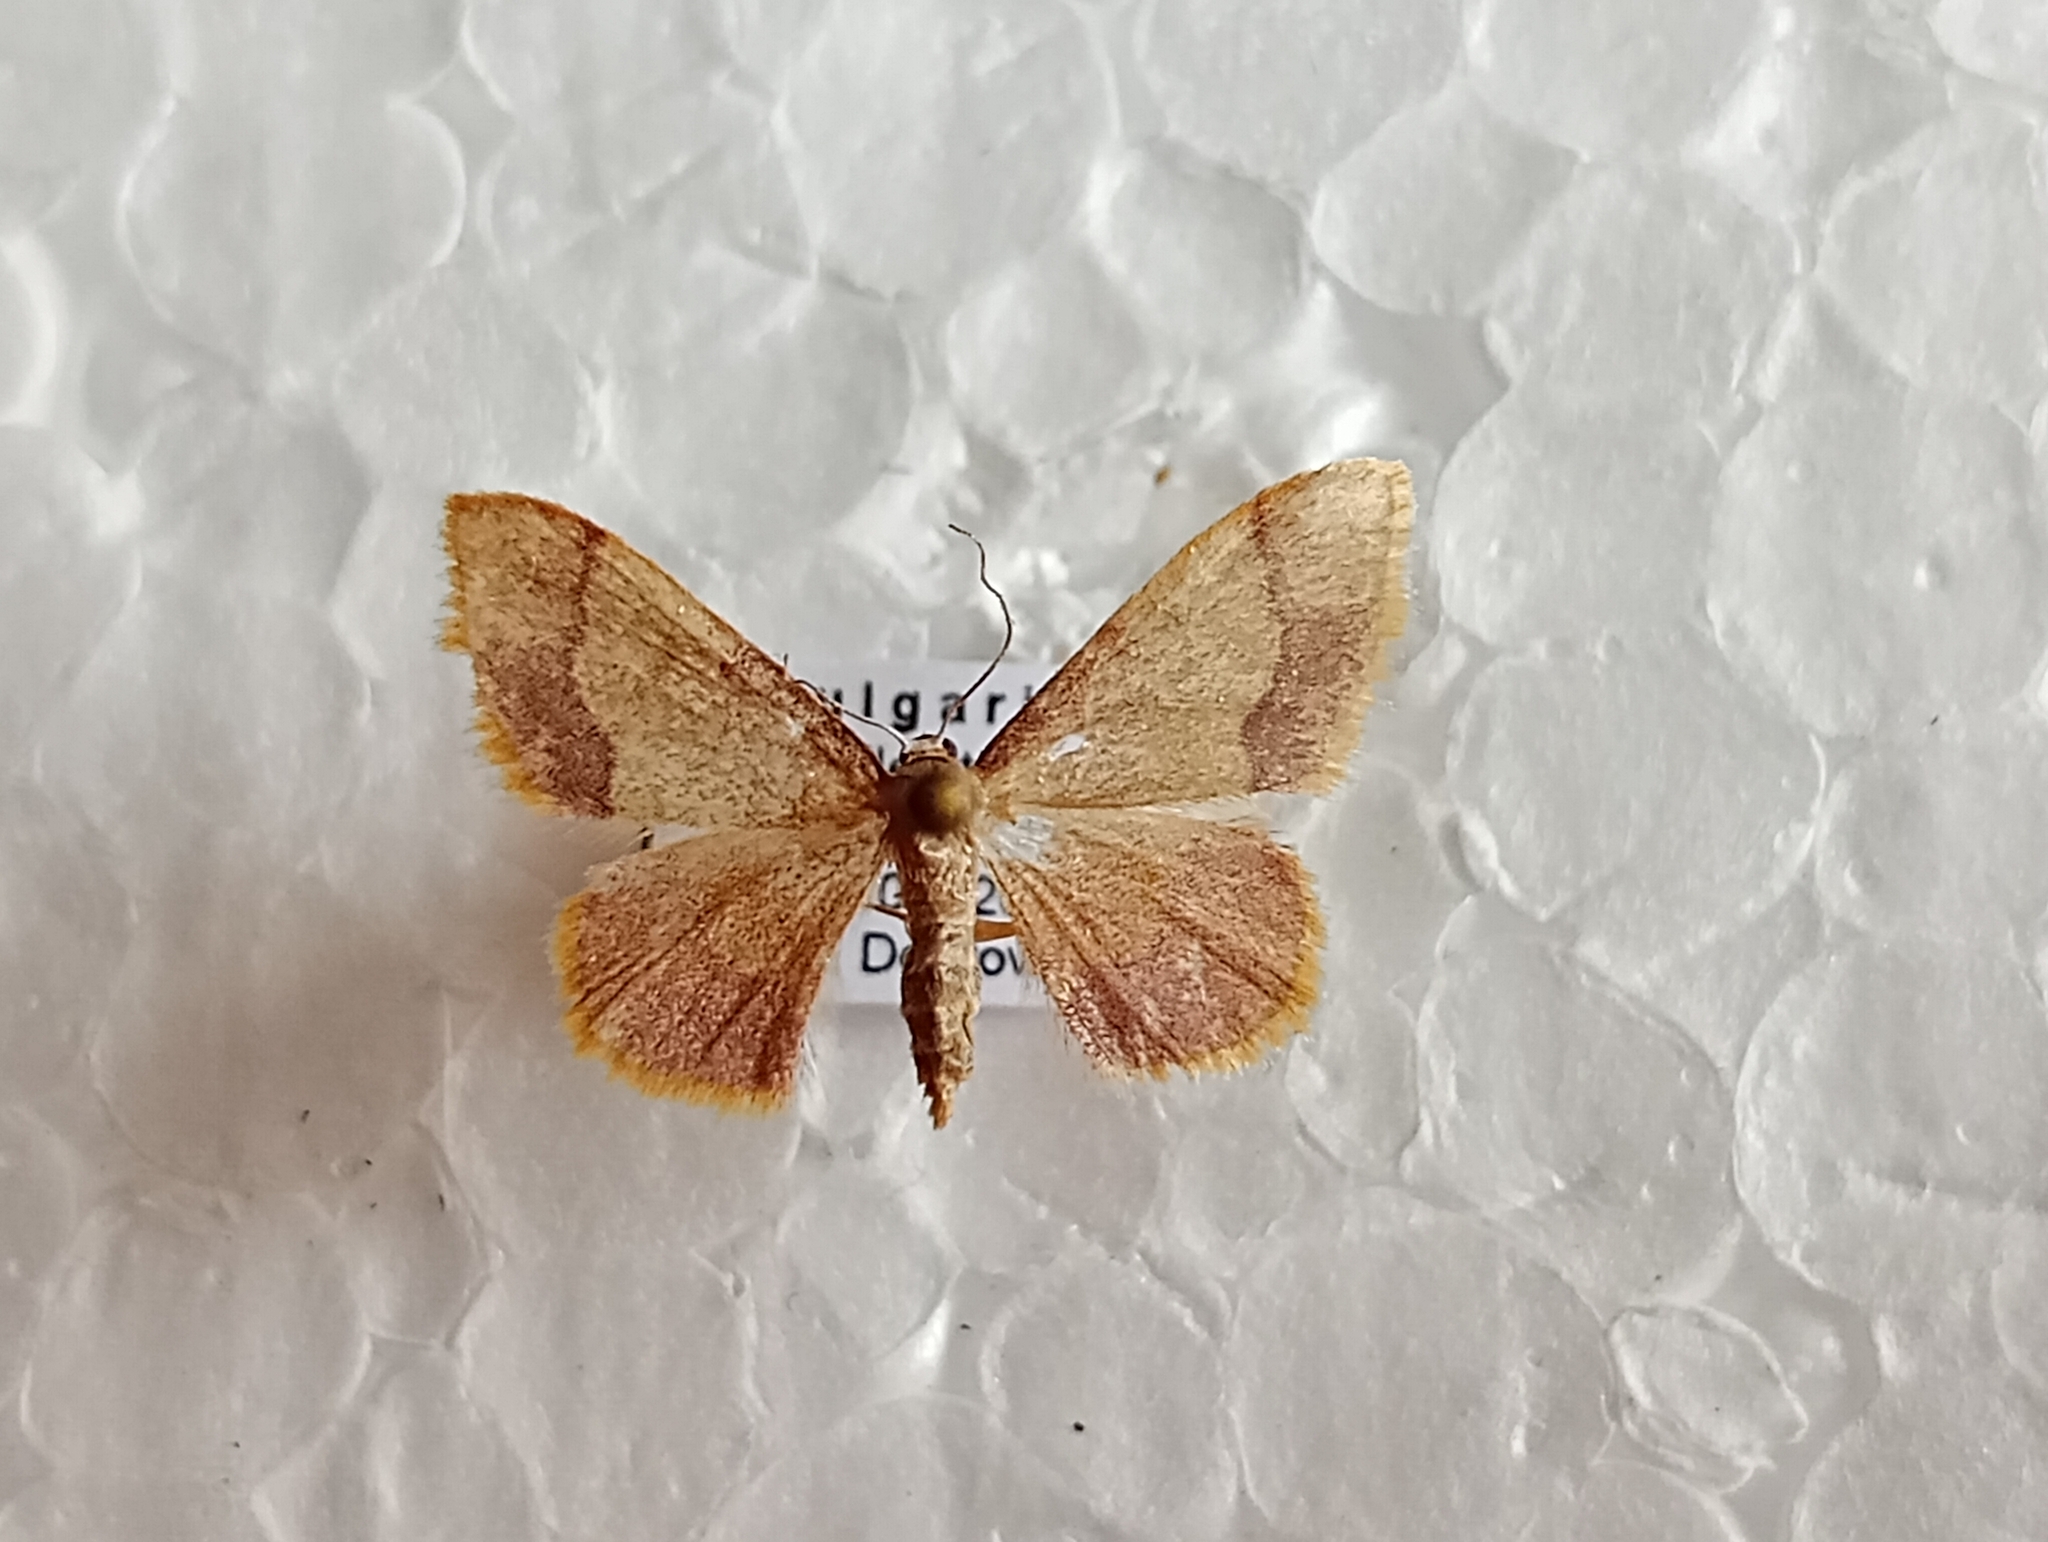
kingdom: Animalia
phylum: Arthropoda
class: Insecta
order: Lepidoptera
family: Geometridae
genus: Idaea
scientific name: Idaea ostrinaria
